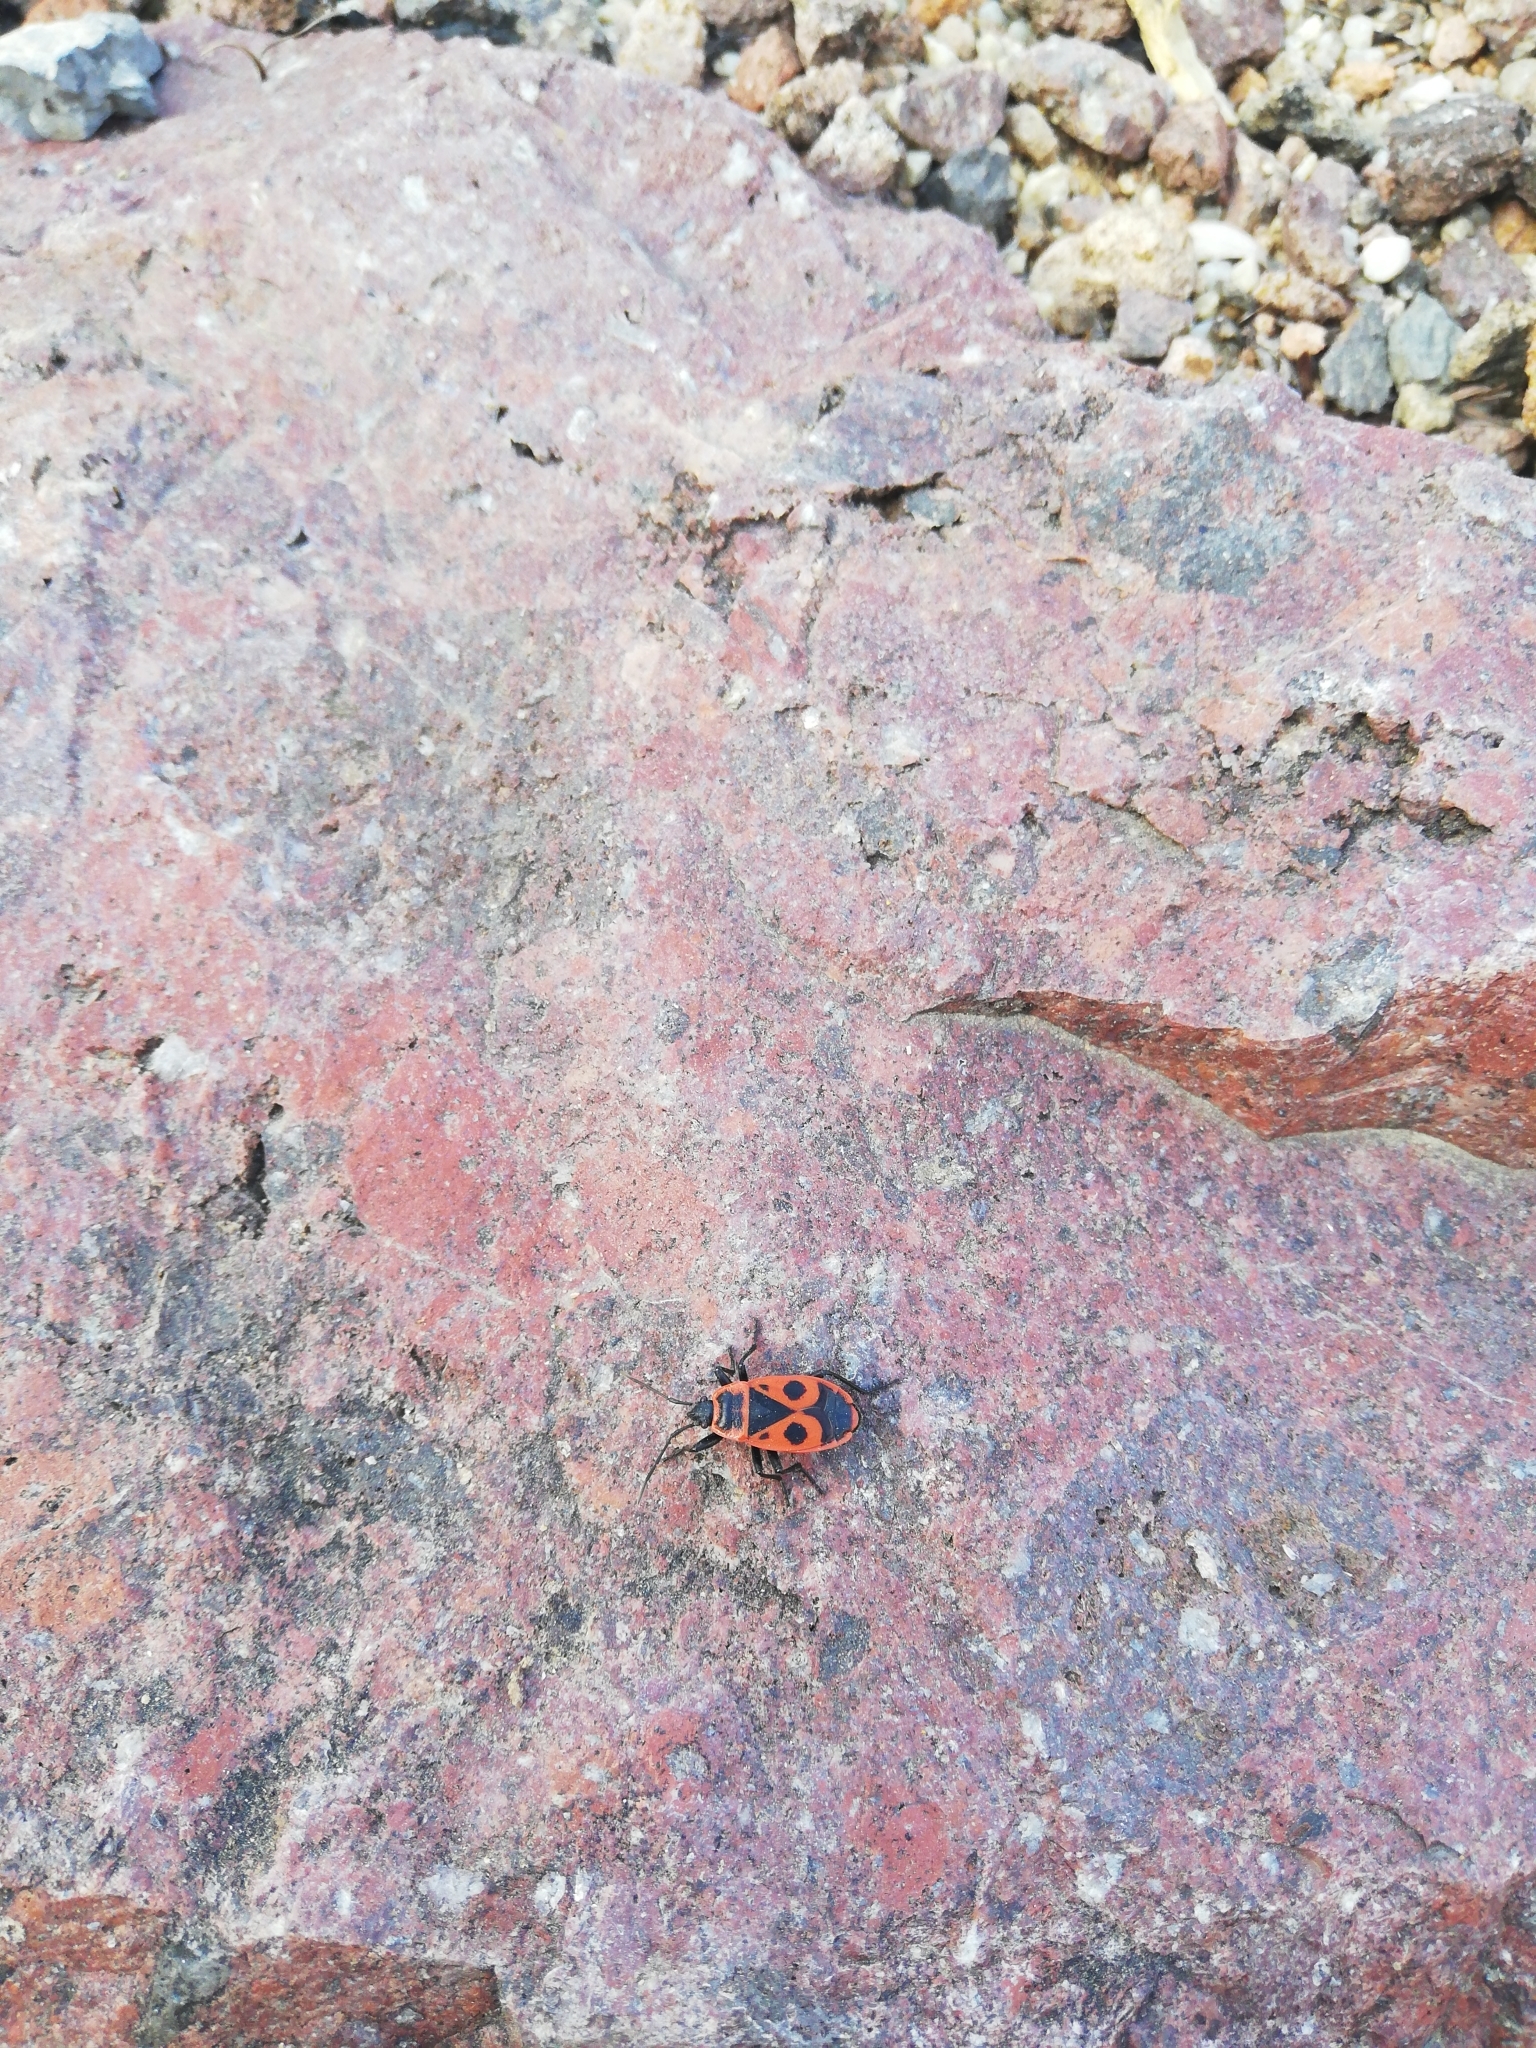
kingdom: Animalia
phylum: Arthropoda
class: Insecta
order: Hemiptera
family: Pyrrhocoridae
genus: Pyrrhocoris
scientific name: Pyrrhocoris apterus
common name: Firebug
